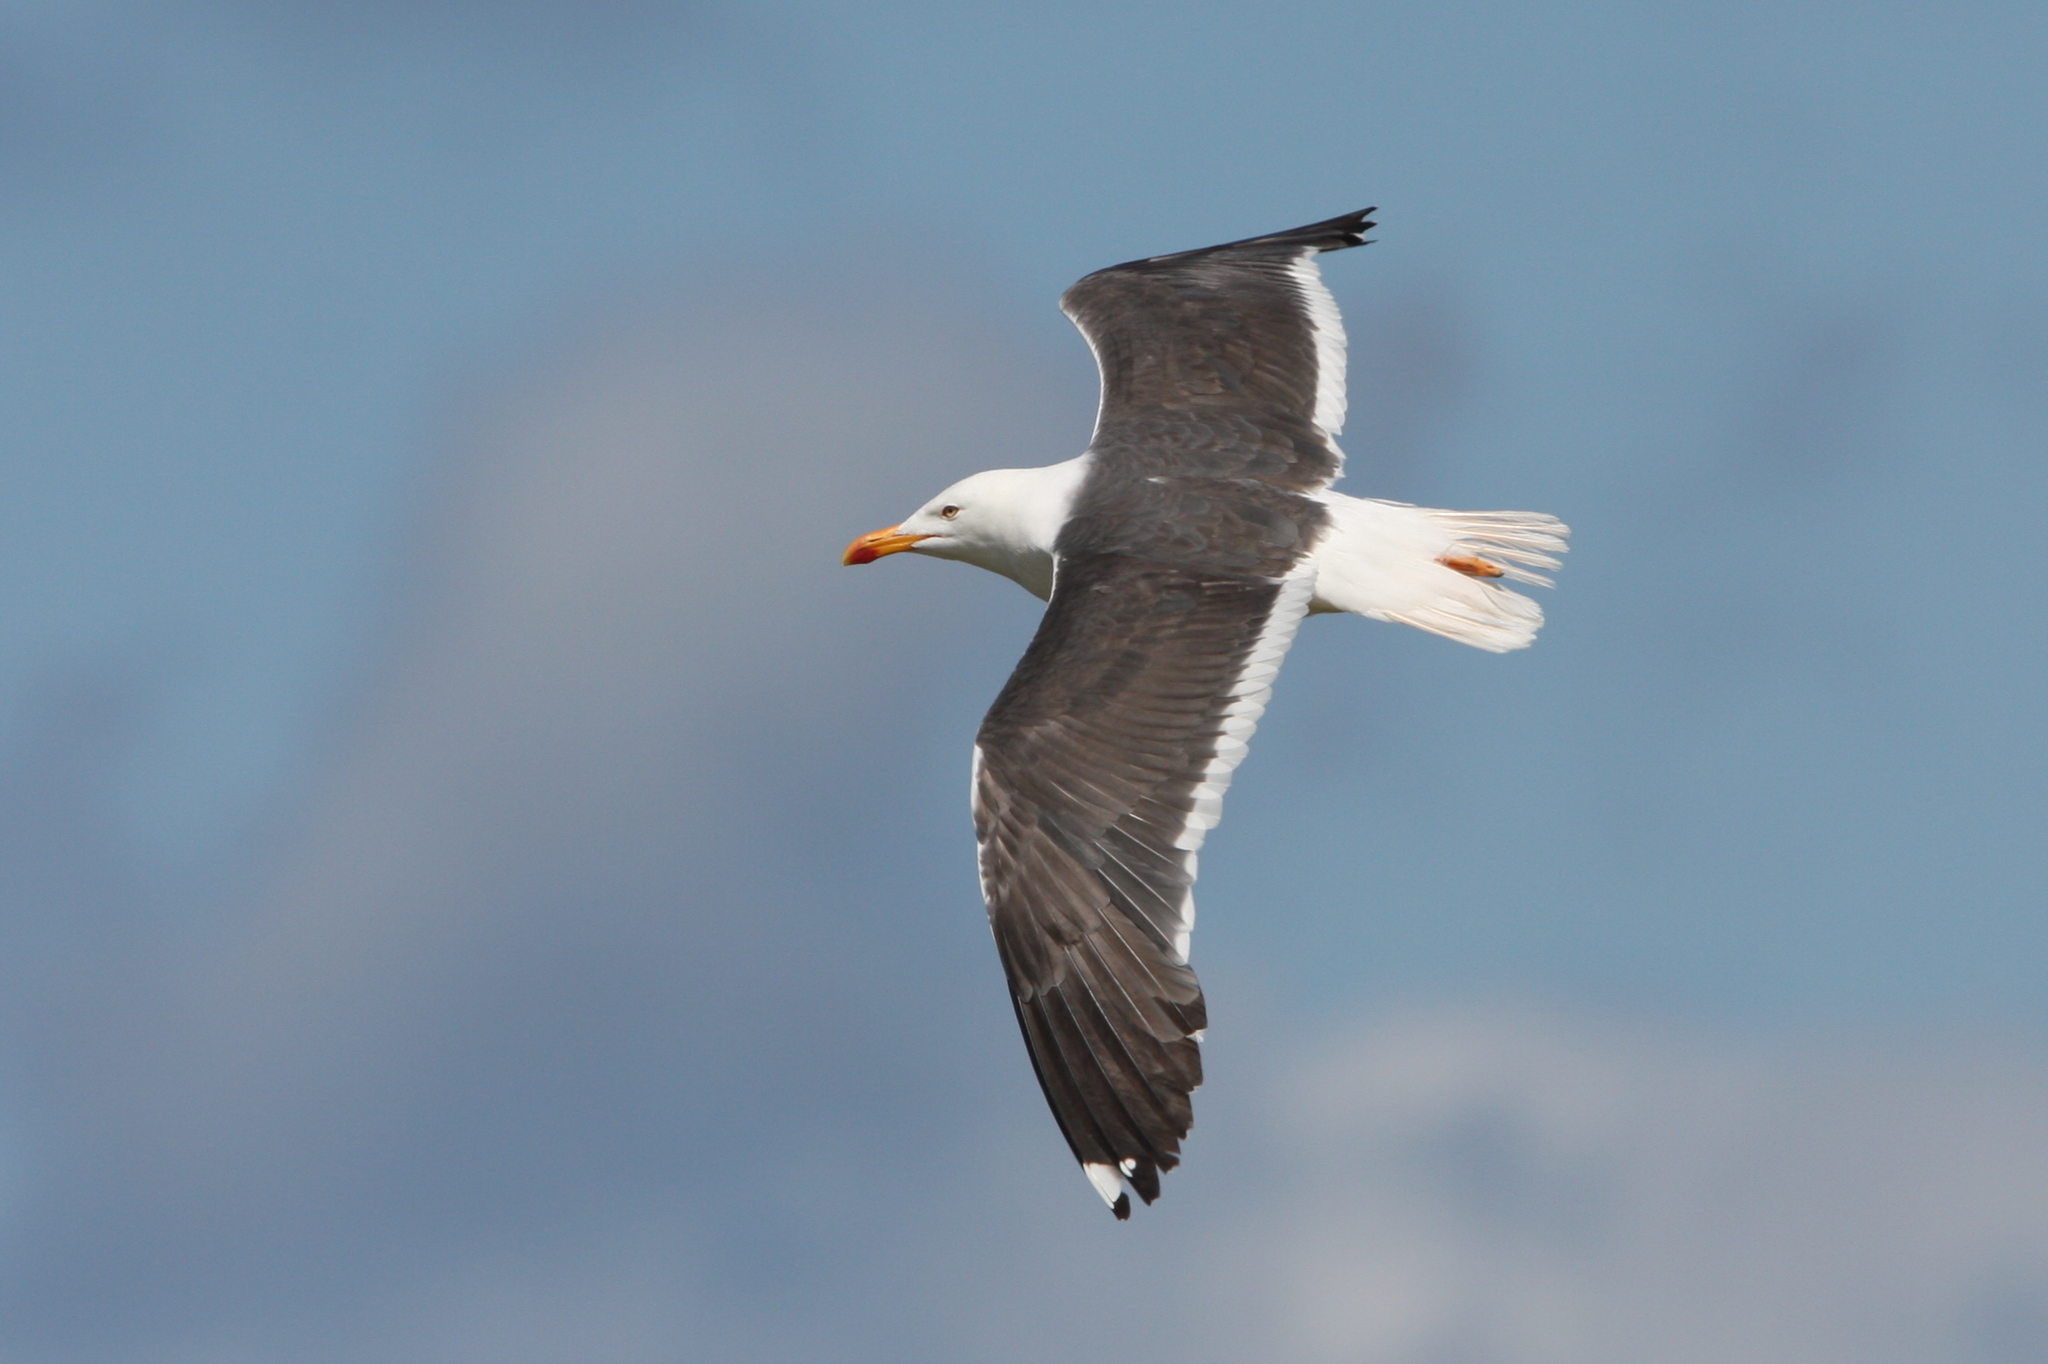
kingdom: Animalia
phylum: Chordata
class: Aves
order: Charadriiformes
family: Laridae
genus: Larus
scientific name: Larus fuscus
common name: Lesser black-backed gull
